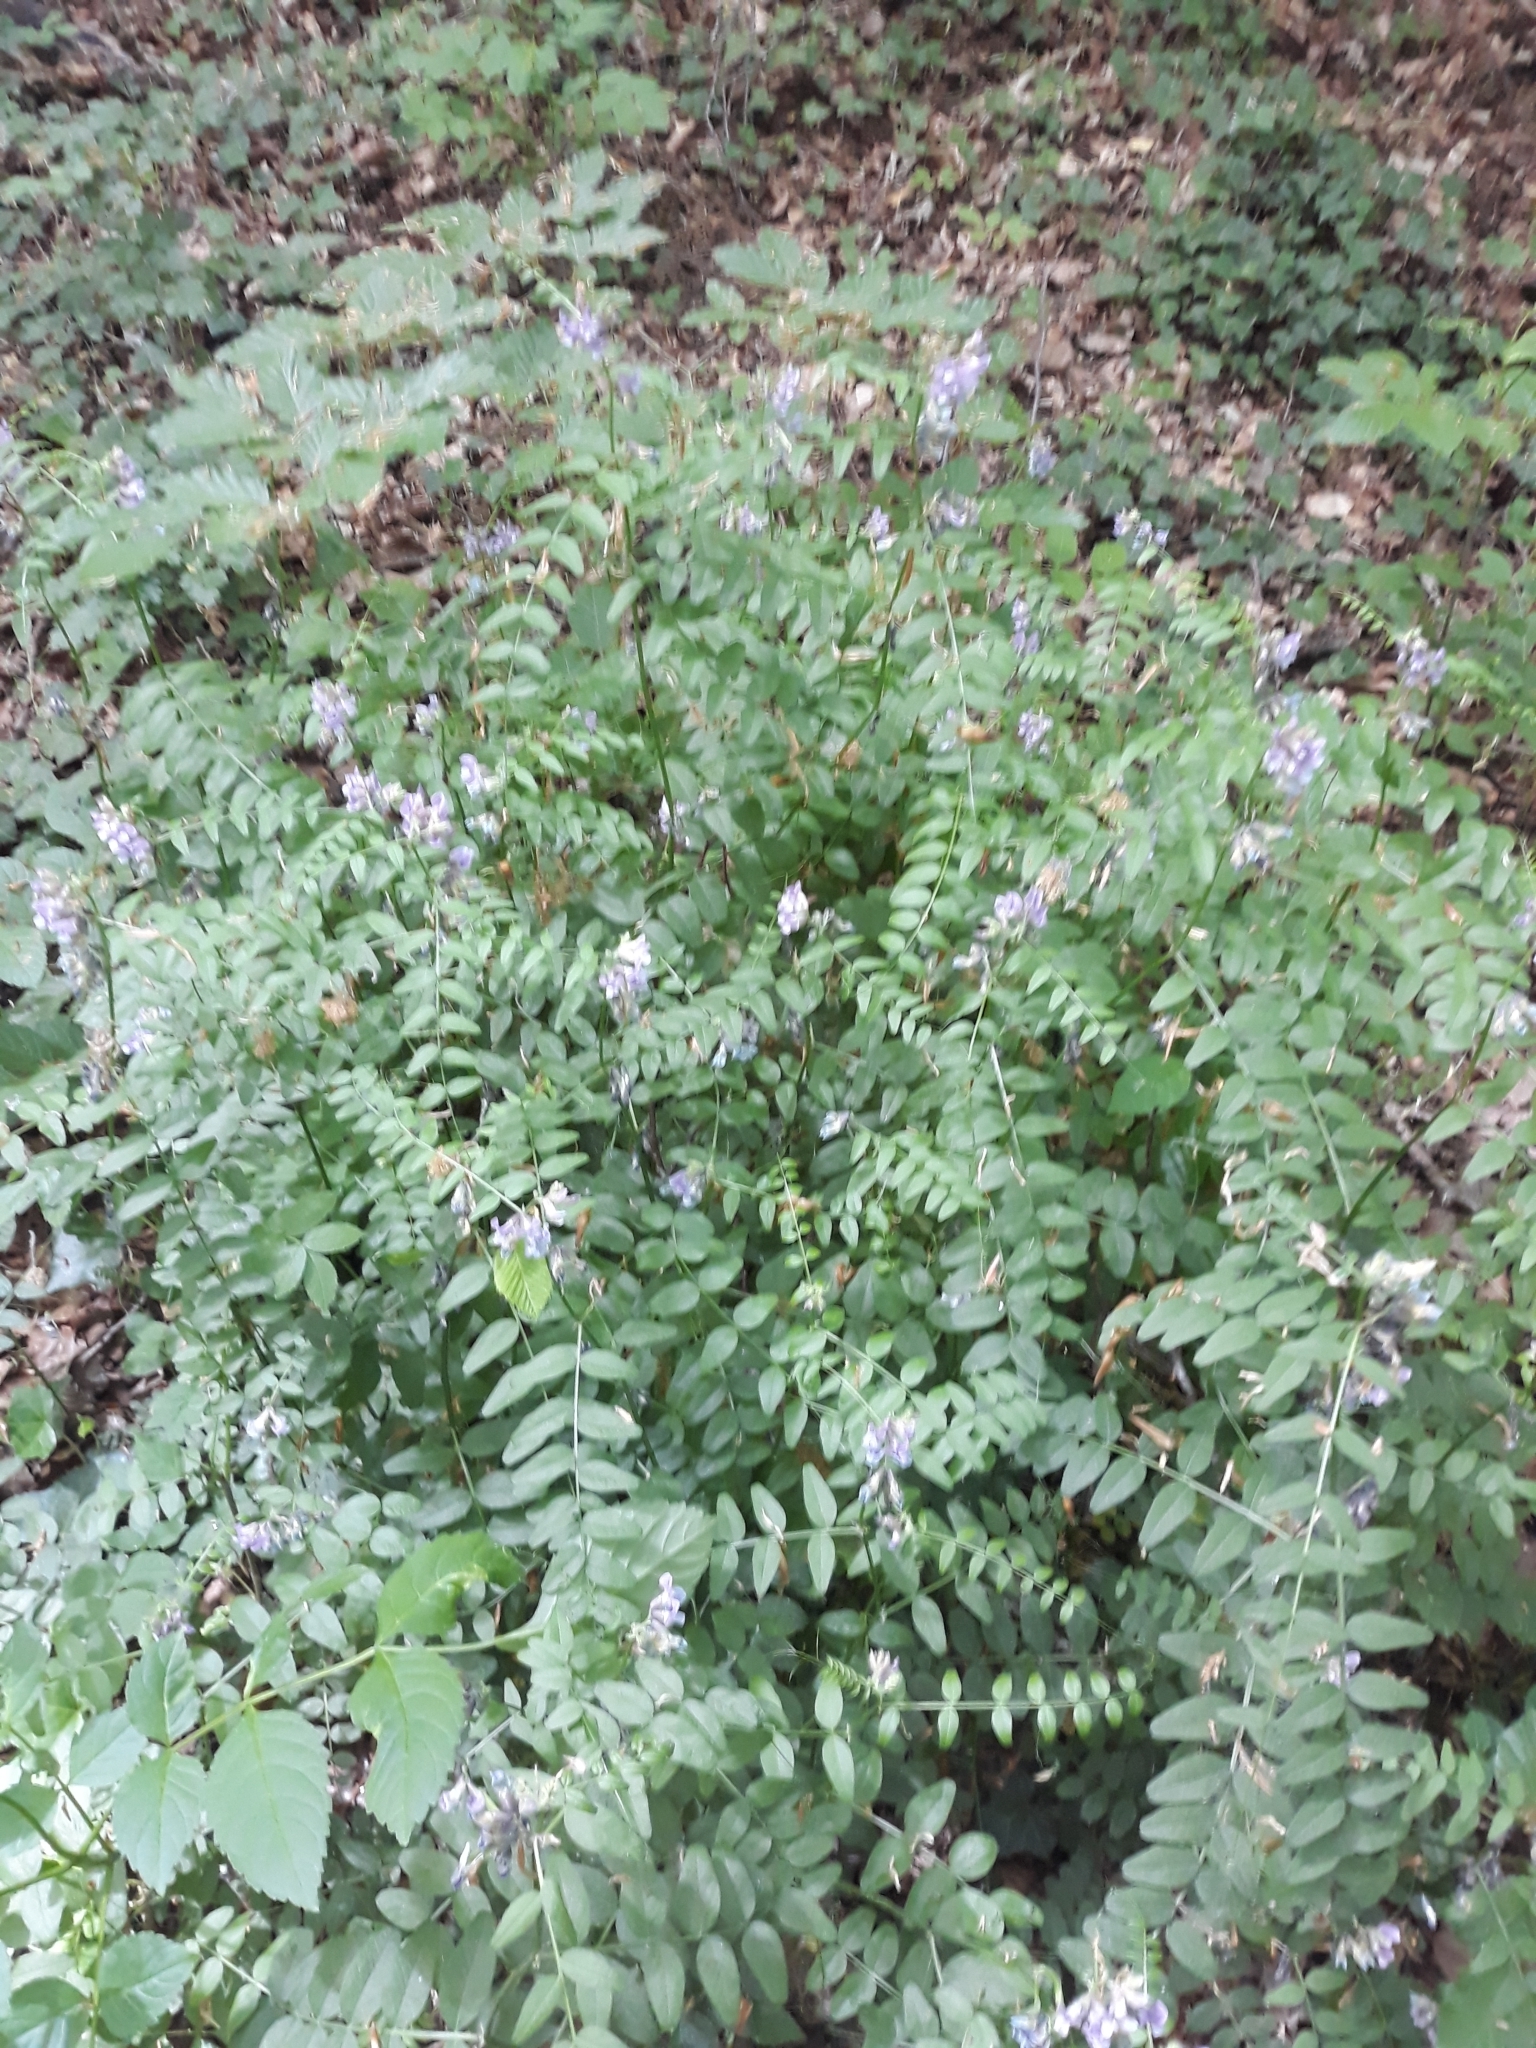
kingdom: Plantae
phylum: Tracheophyta
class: Magnoliopsida
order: Fabales
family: Fabaceae
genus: Vicia
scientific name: Vicia sepium
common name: Bush vetch
